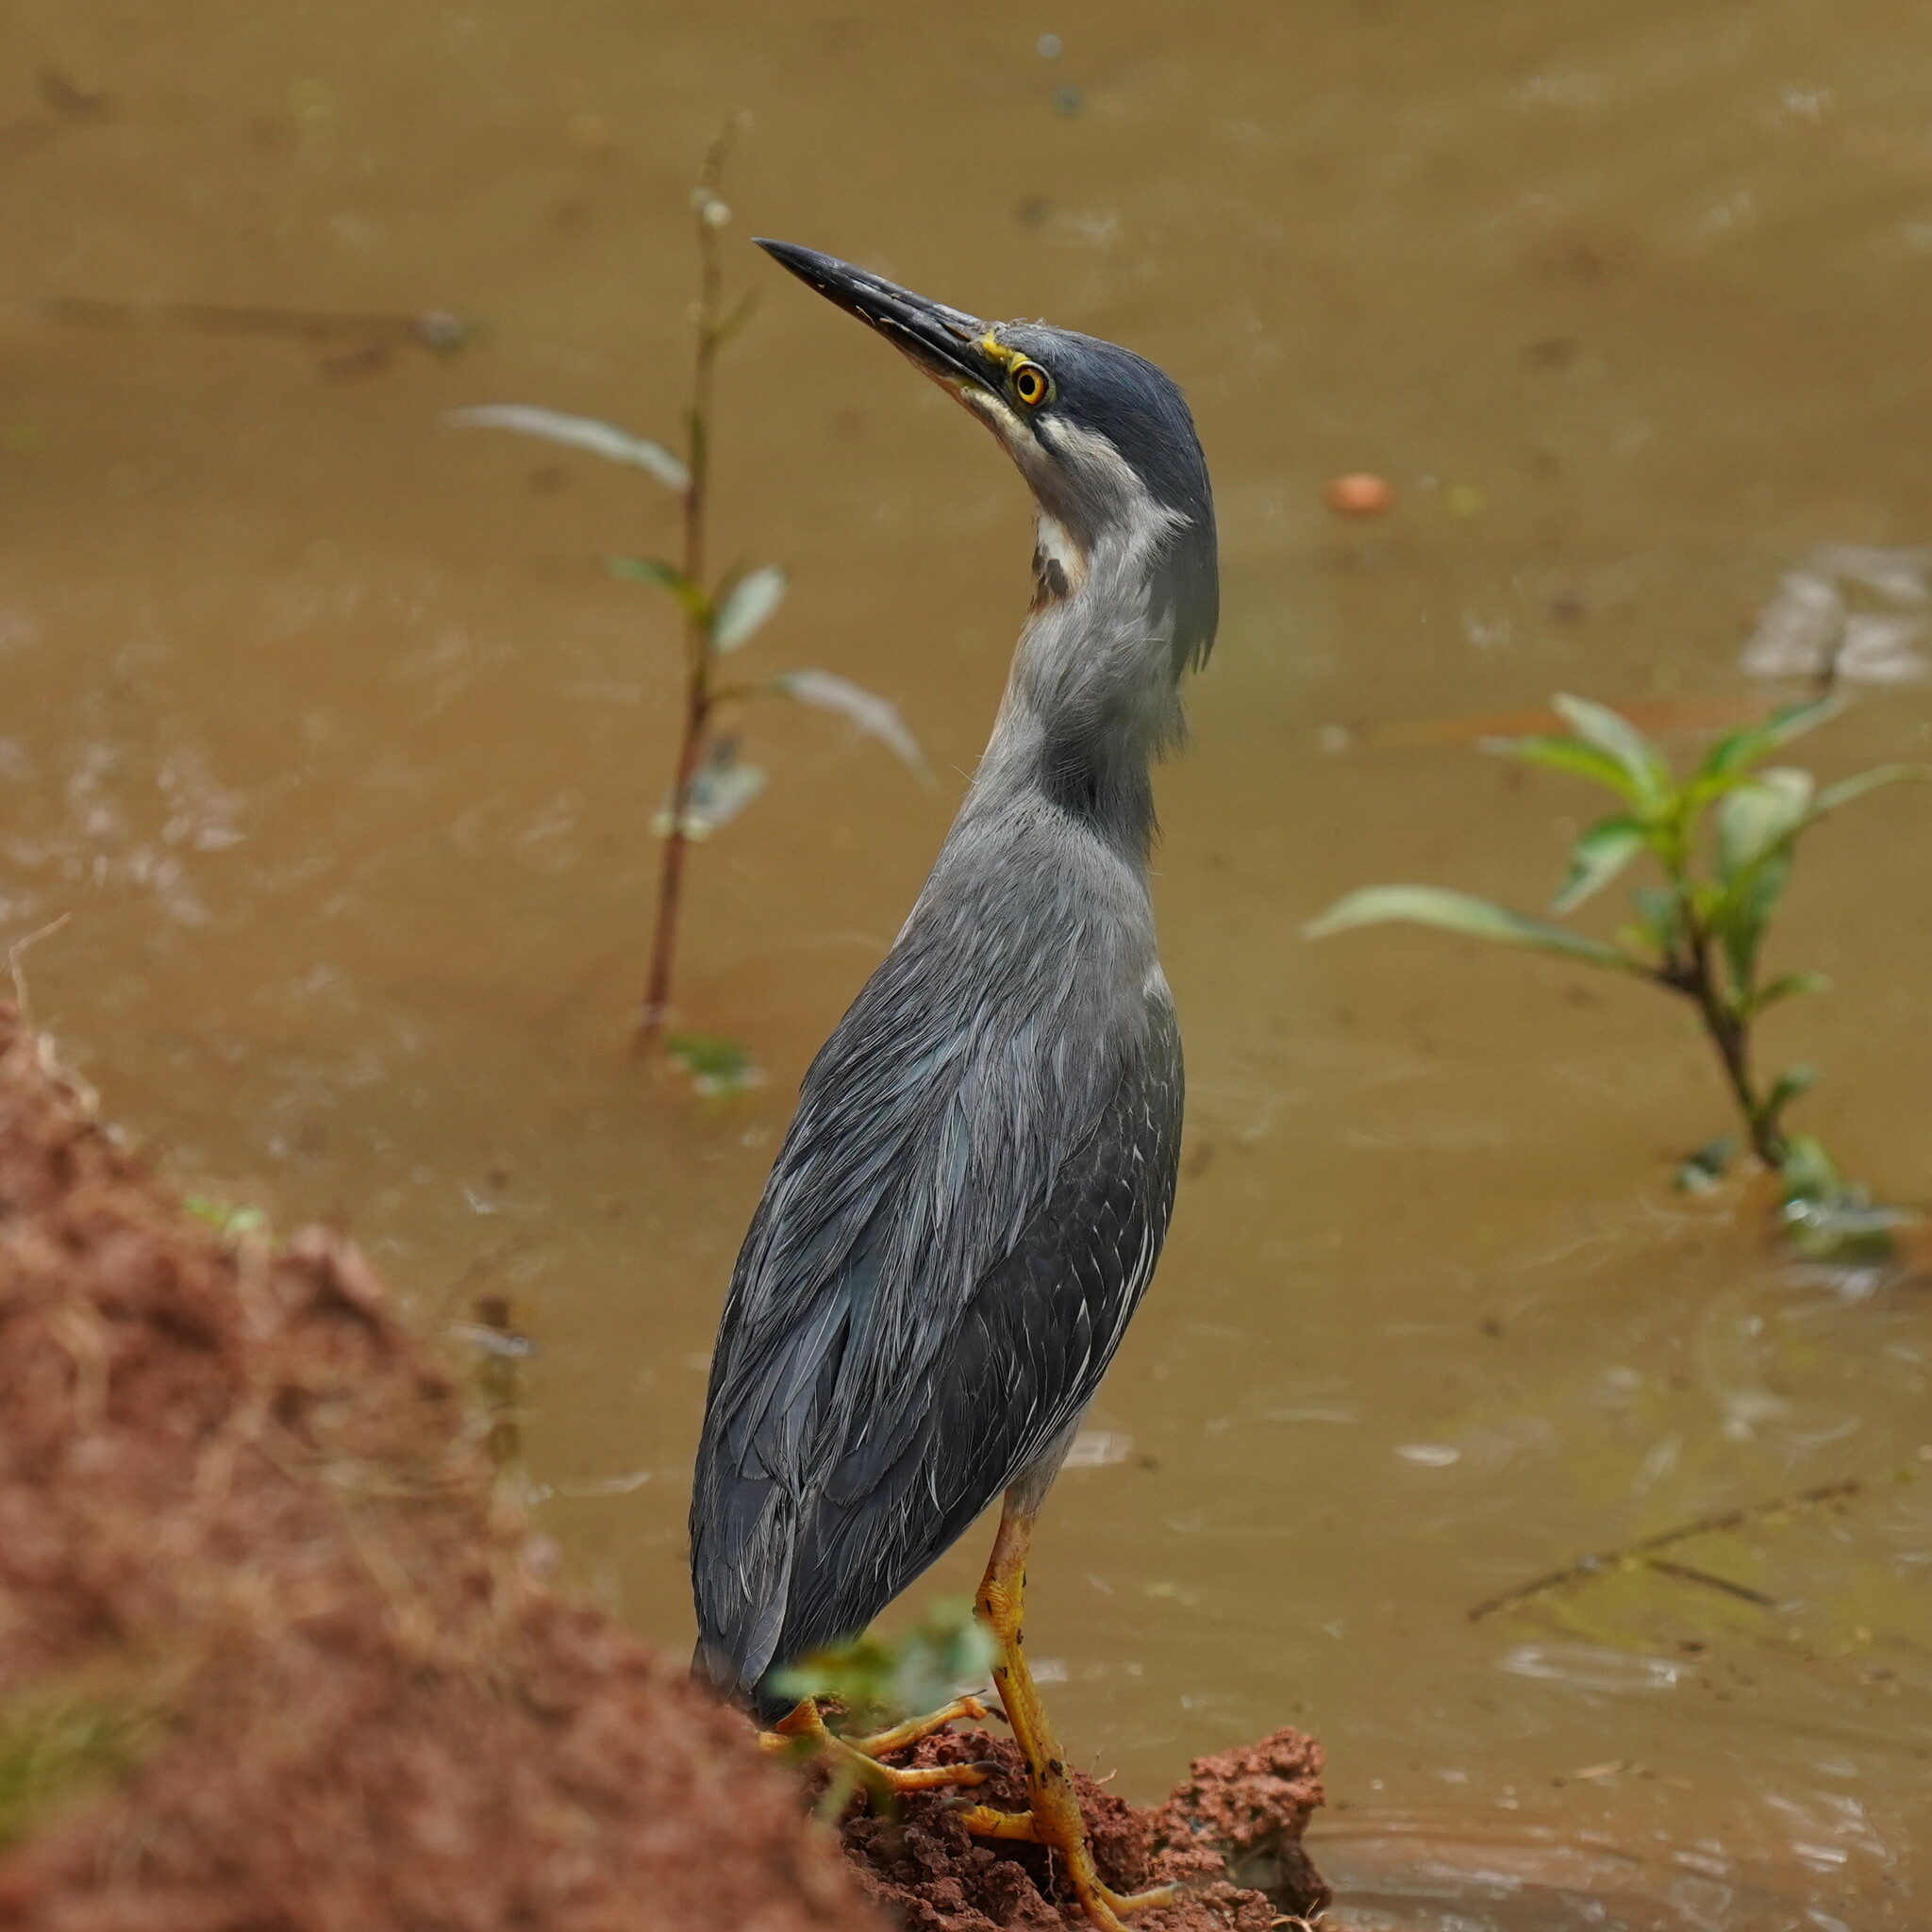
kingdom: Animalia
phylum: Chordata
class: Aves
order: Pelecaniformes
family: Ardeidae
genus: Butorides
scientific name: Butorides striata
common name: Striated heron
